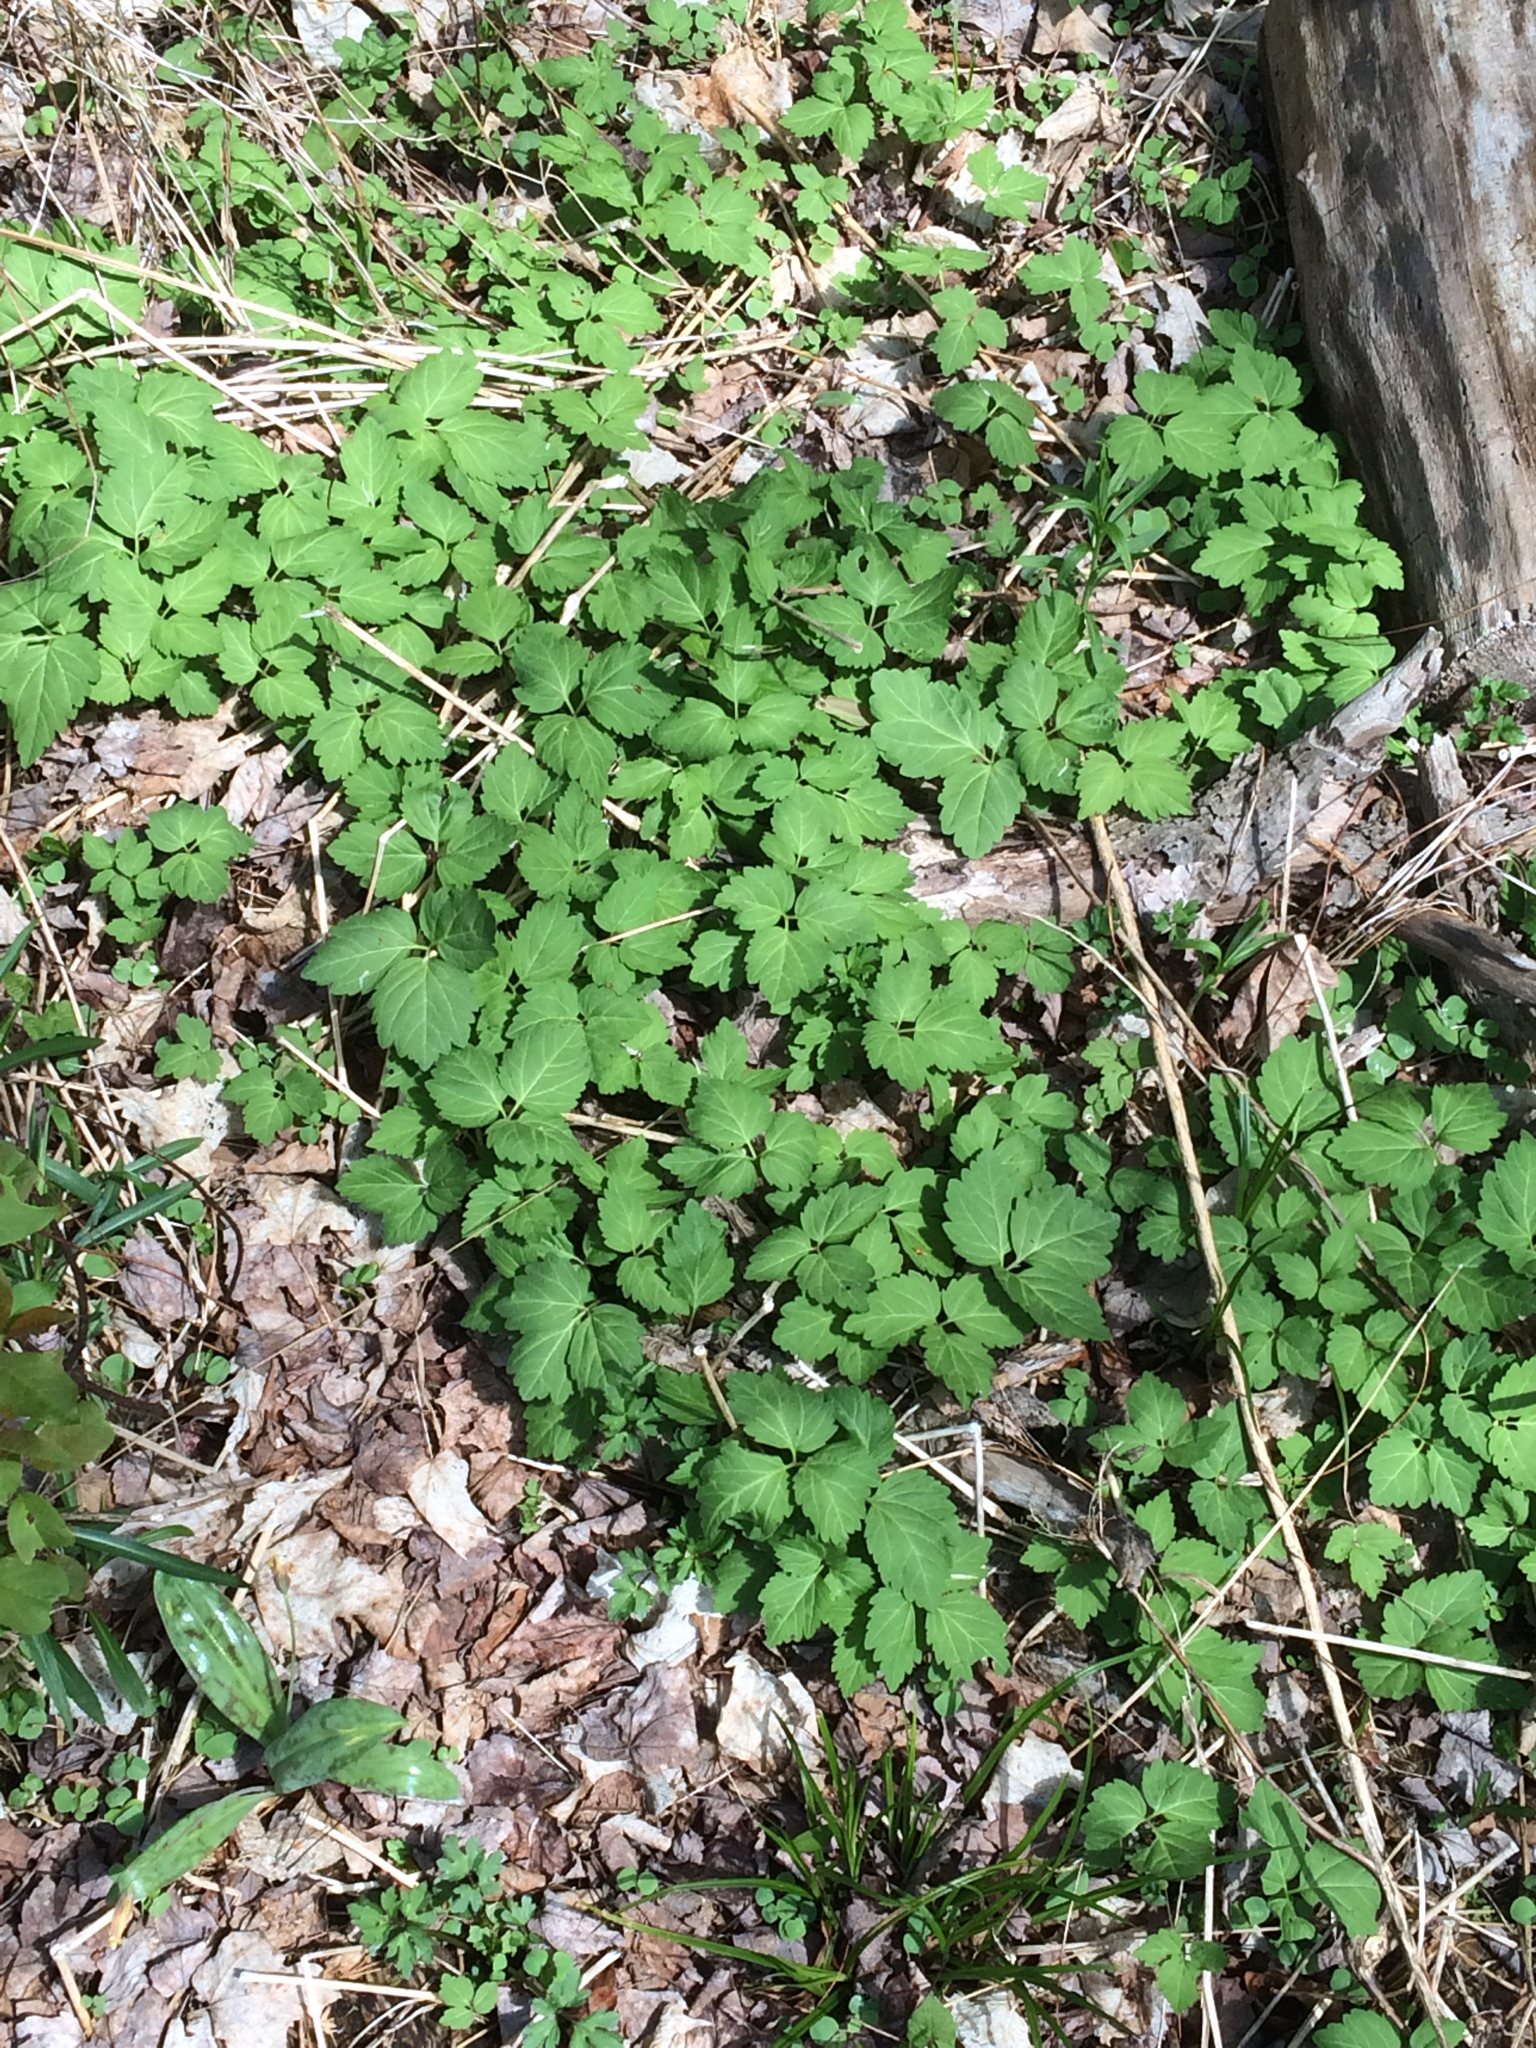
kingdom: Plantae
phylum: Tracheophyta
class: Magnoliopsida
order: Brassicales
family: Brassicaceae
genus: Cardamine
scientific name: Cardamine diphylla
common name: Broad-leaved toothwort
